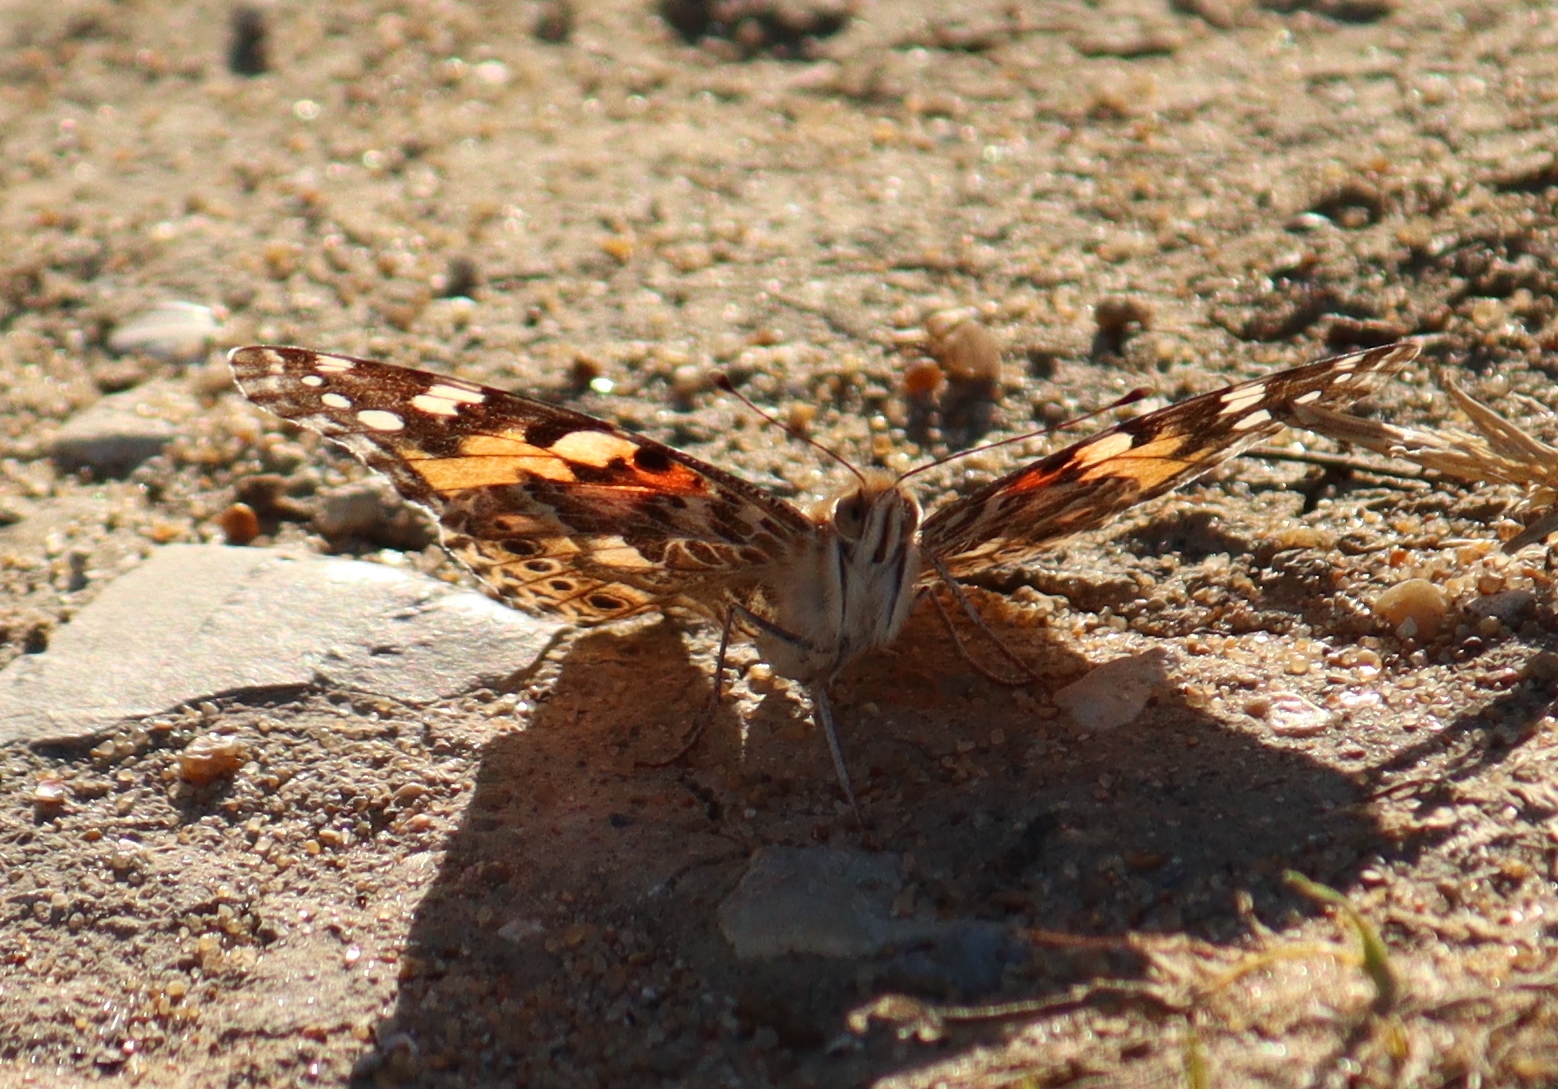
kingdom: Animalia
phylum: Arthropoda
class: Insecta
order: Lepidoptera
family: Nymphalidae
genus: Vanessa
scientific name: Vanessa cardui
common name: Painted lady
